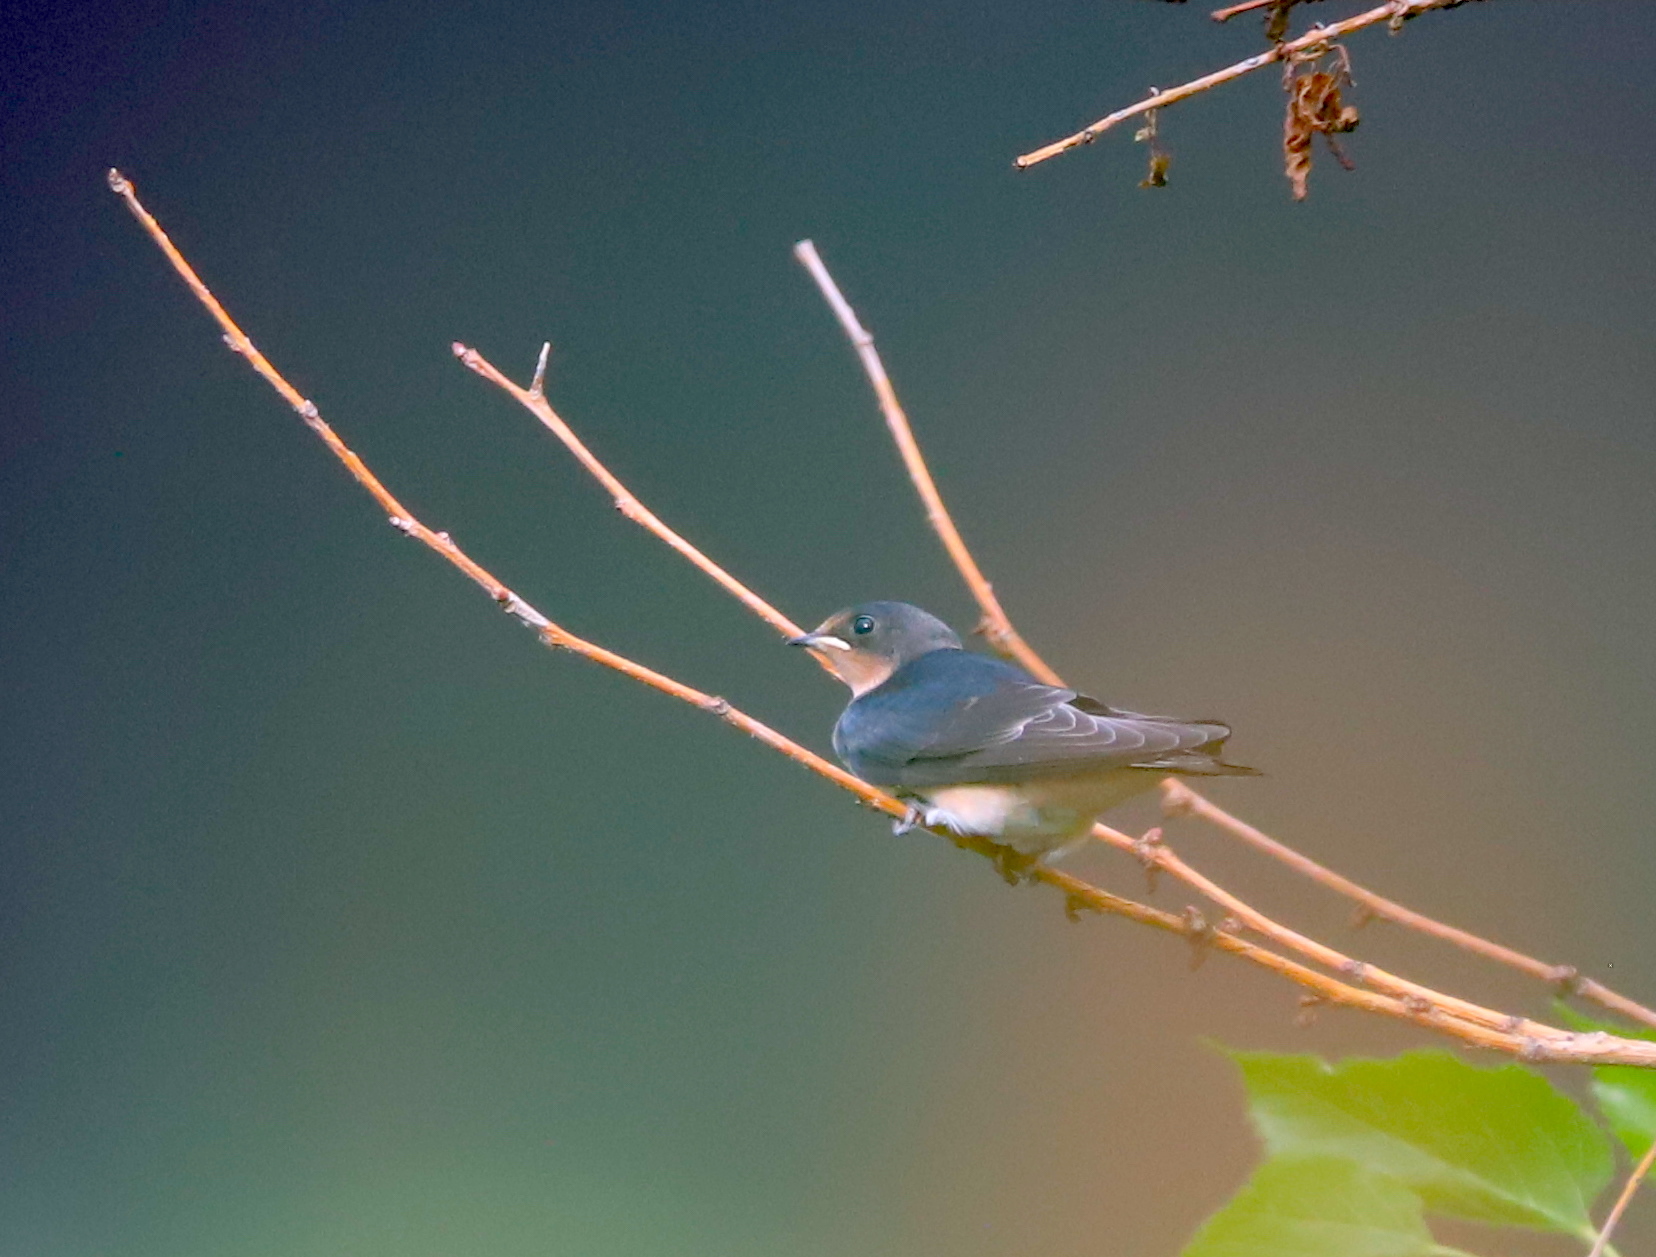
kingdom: Animalia
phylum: Chordata
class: Aves
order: Passeriformes
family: Hirundinidae
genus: Hirundo
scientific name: Hirundo rustica
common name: Barn swallow
